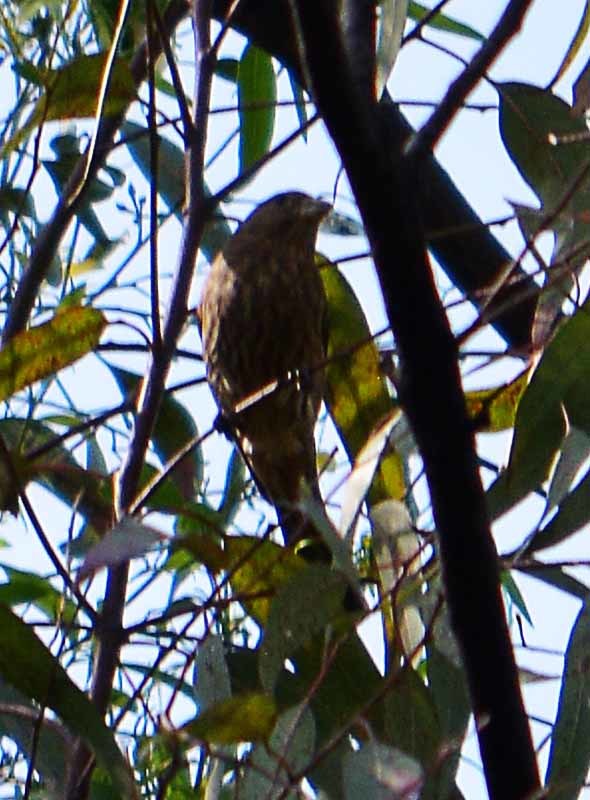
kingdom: Animalia
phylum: Chordata
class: Aves
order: Passeriformes
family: Fringillidae
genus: Haemorhous
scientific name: Haemorhous mexicanus
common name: House finch
